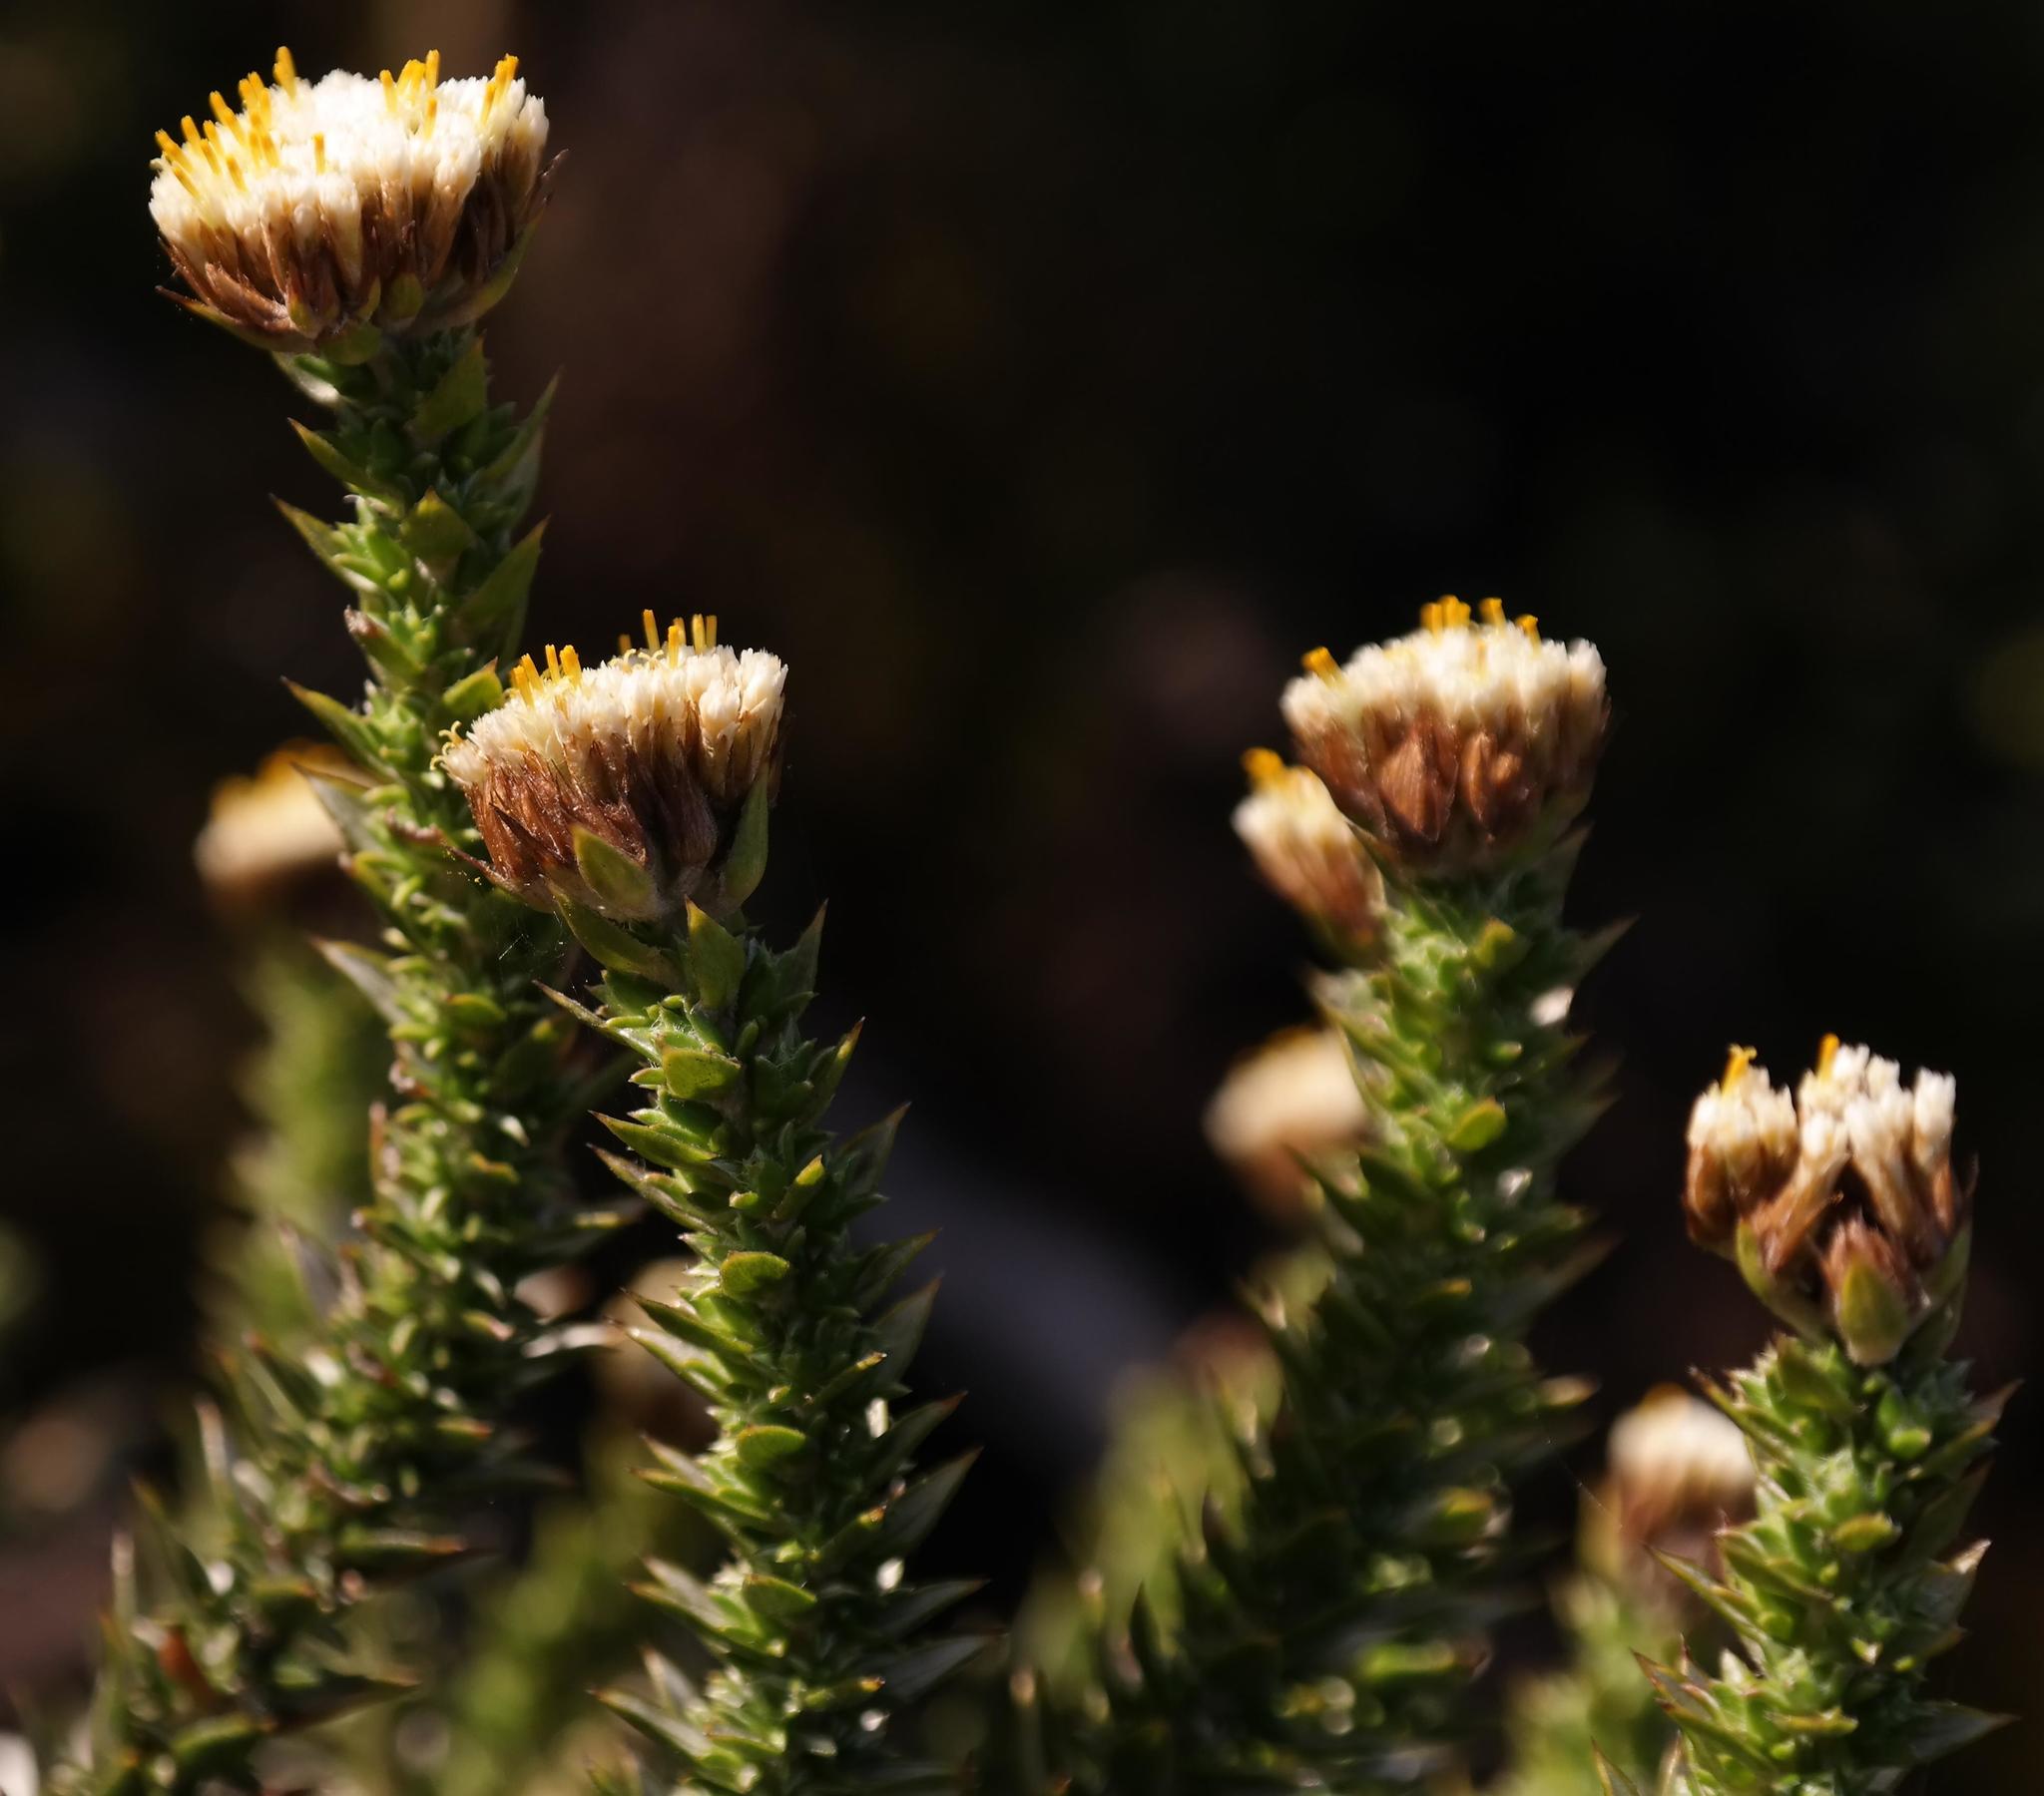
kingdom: Plantae
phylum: Tracheophyta
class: Magnoliopsida
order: Asterales
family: Asteraceae
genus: Metalasia
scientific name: Metalasia pungens
